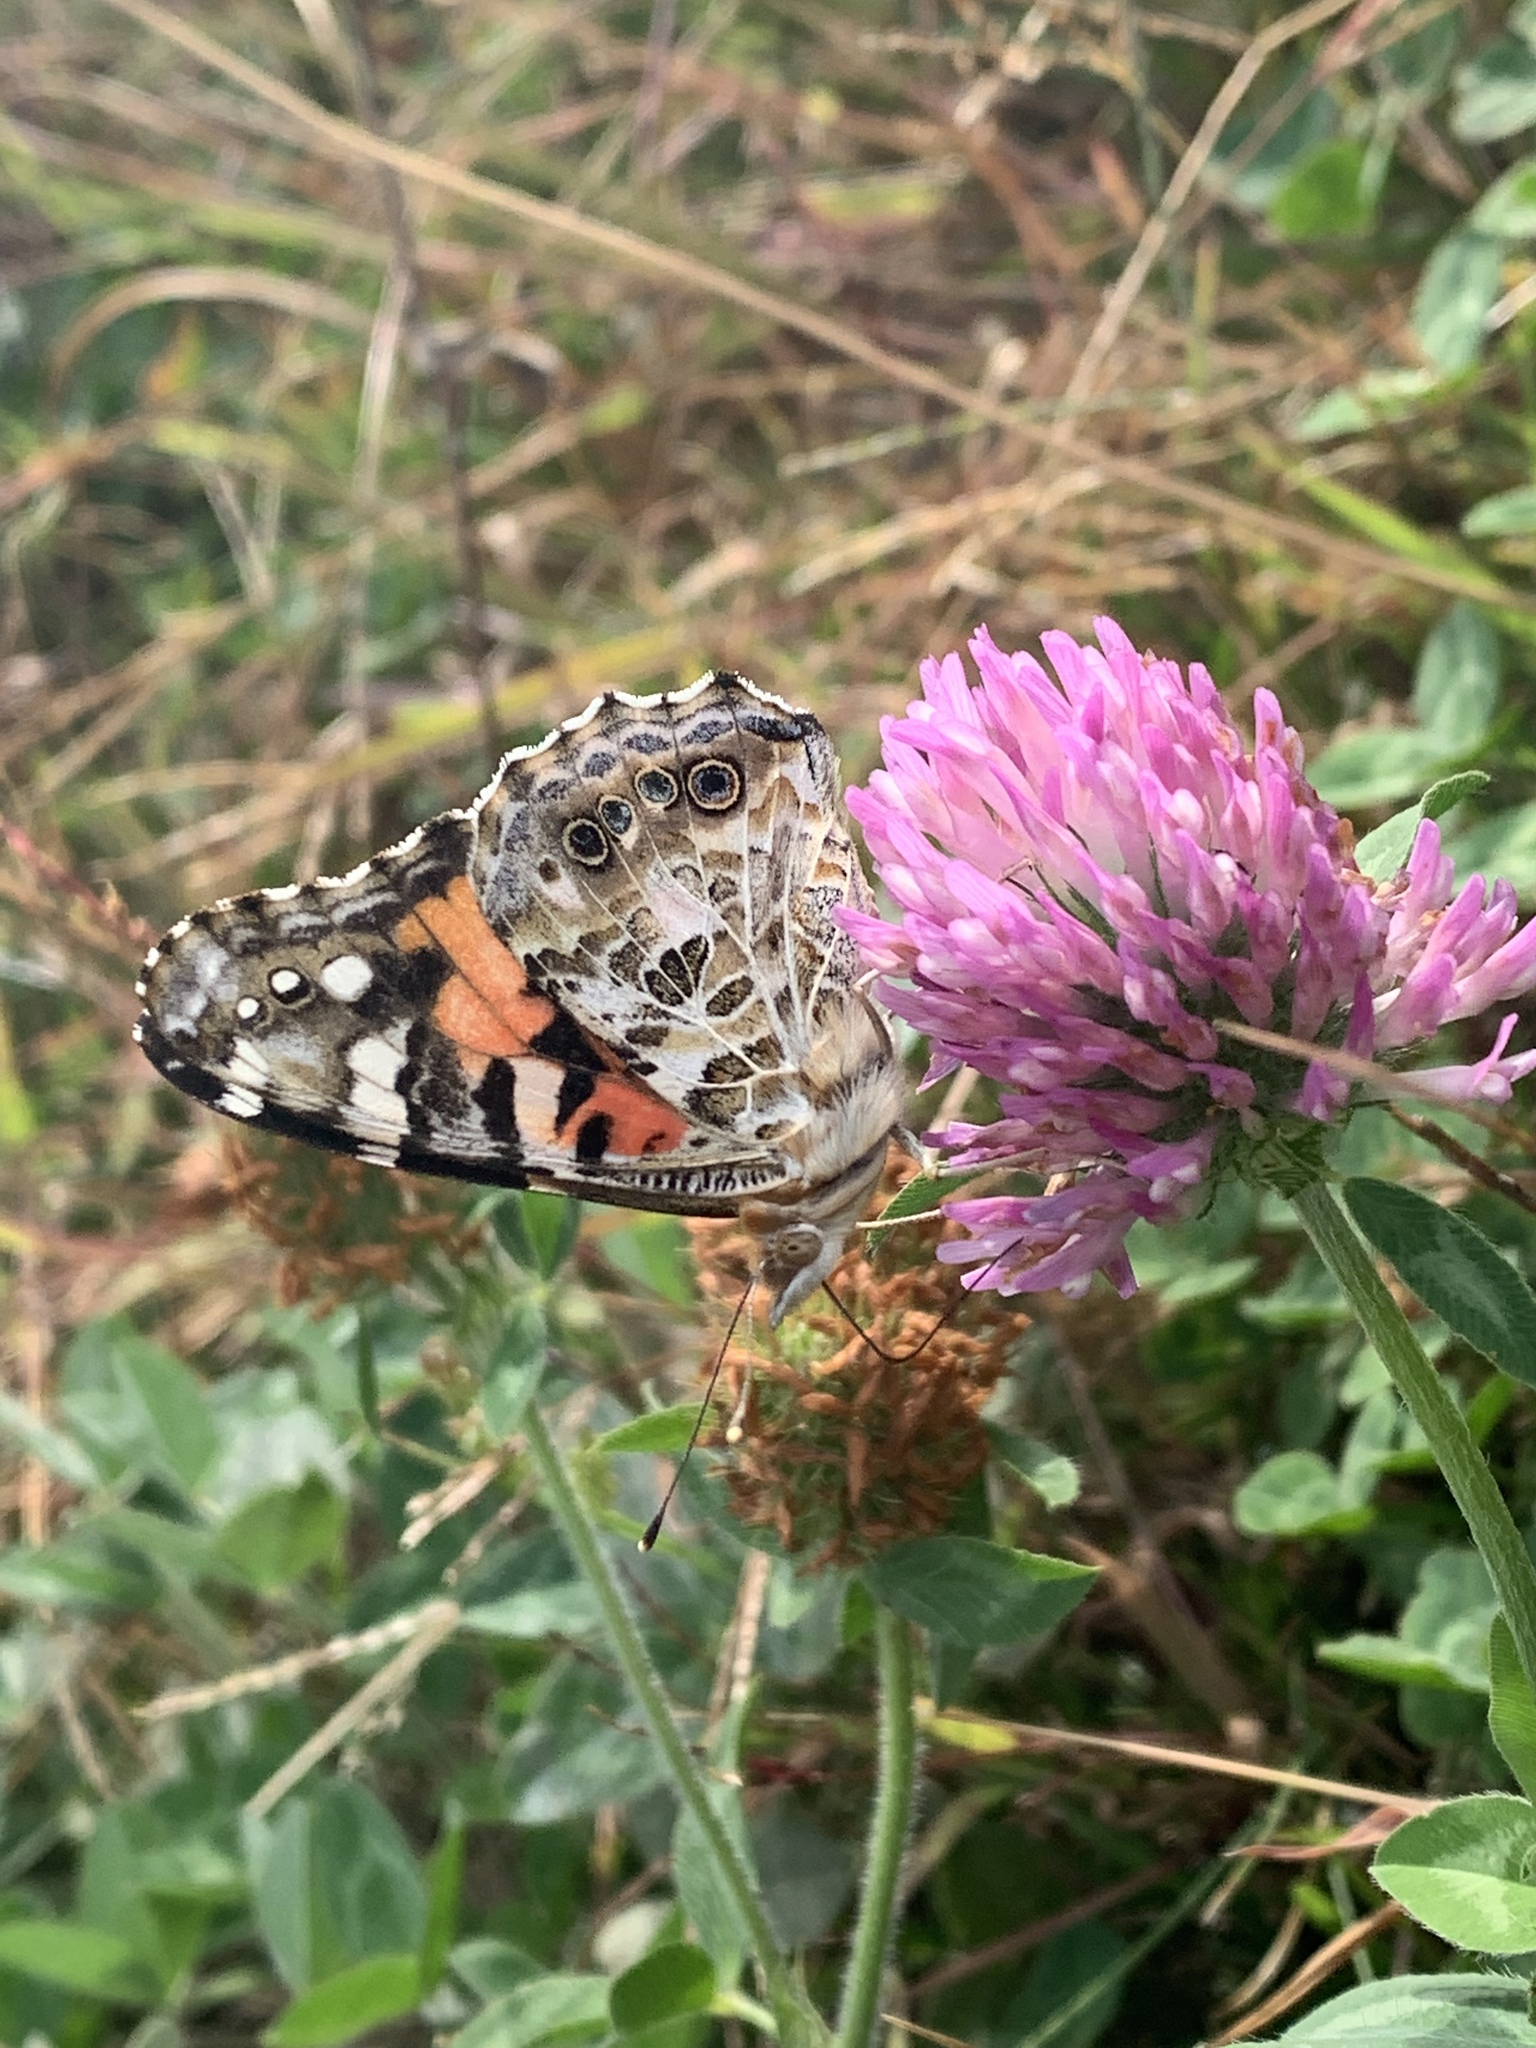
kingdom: Animalia
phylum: Arthropoda
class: Insecta
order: Lepidoptera
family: Nymphalidae
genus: Vanessa
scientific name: Vanessa cardui
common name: Painted lady
